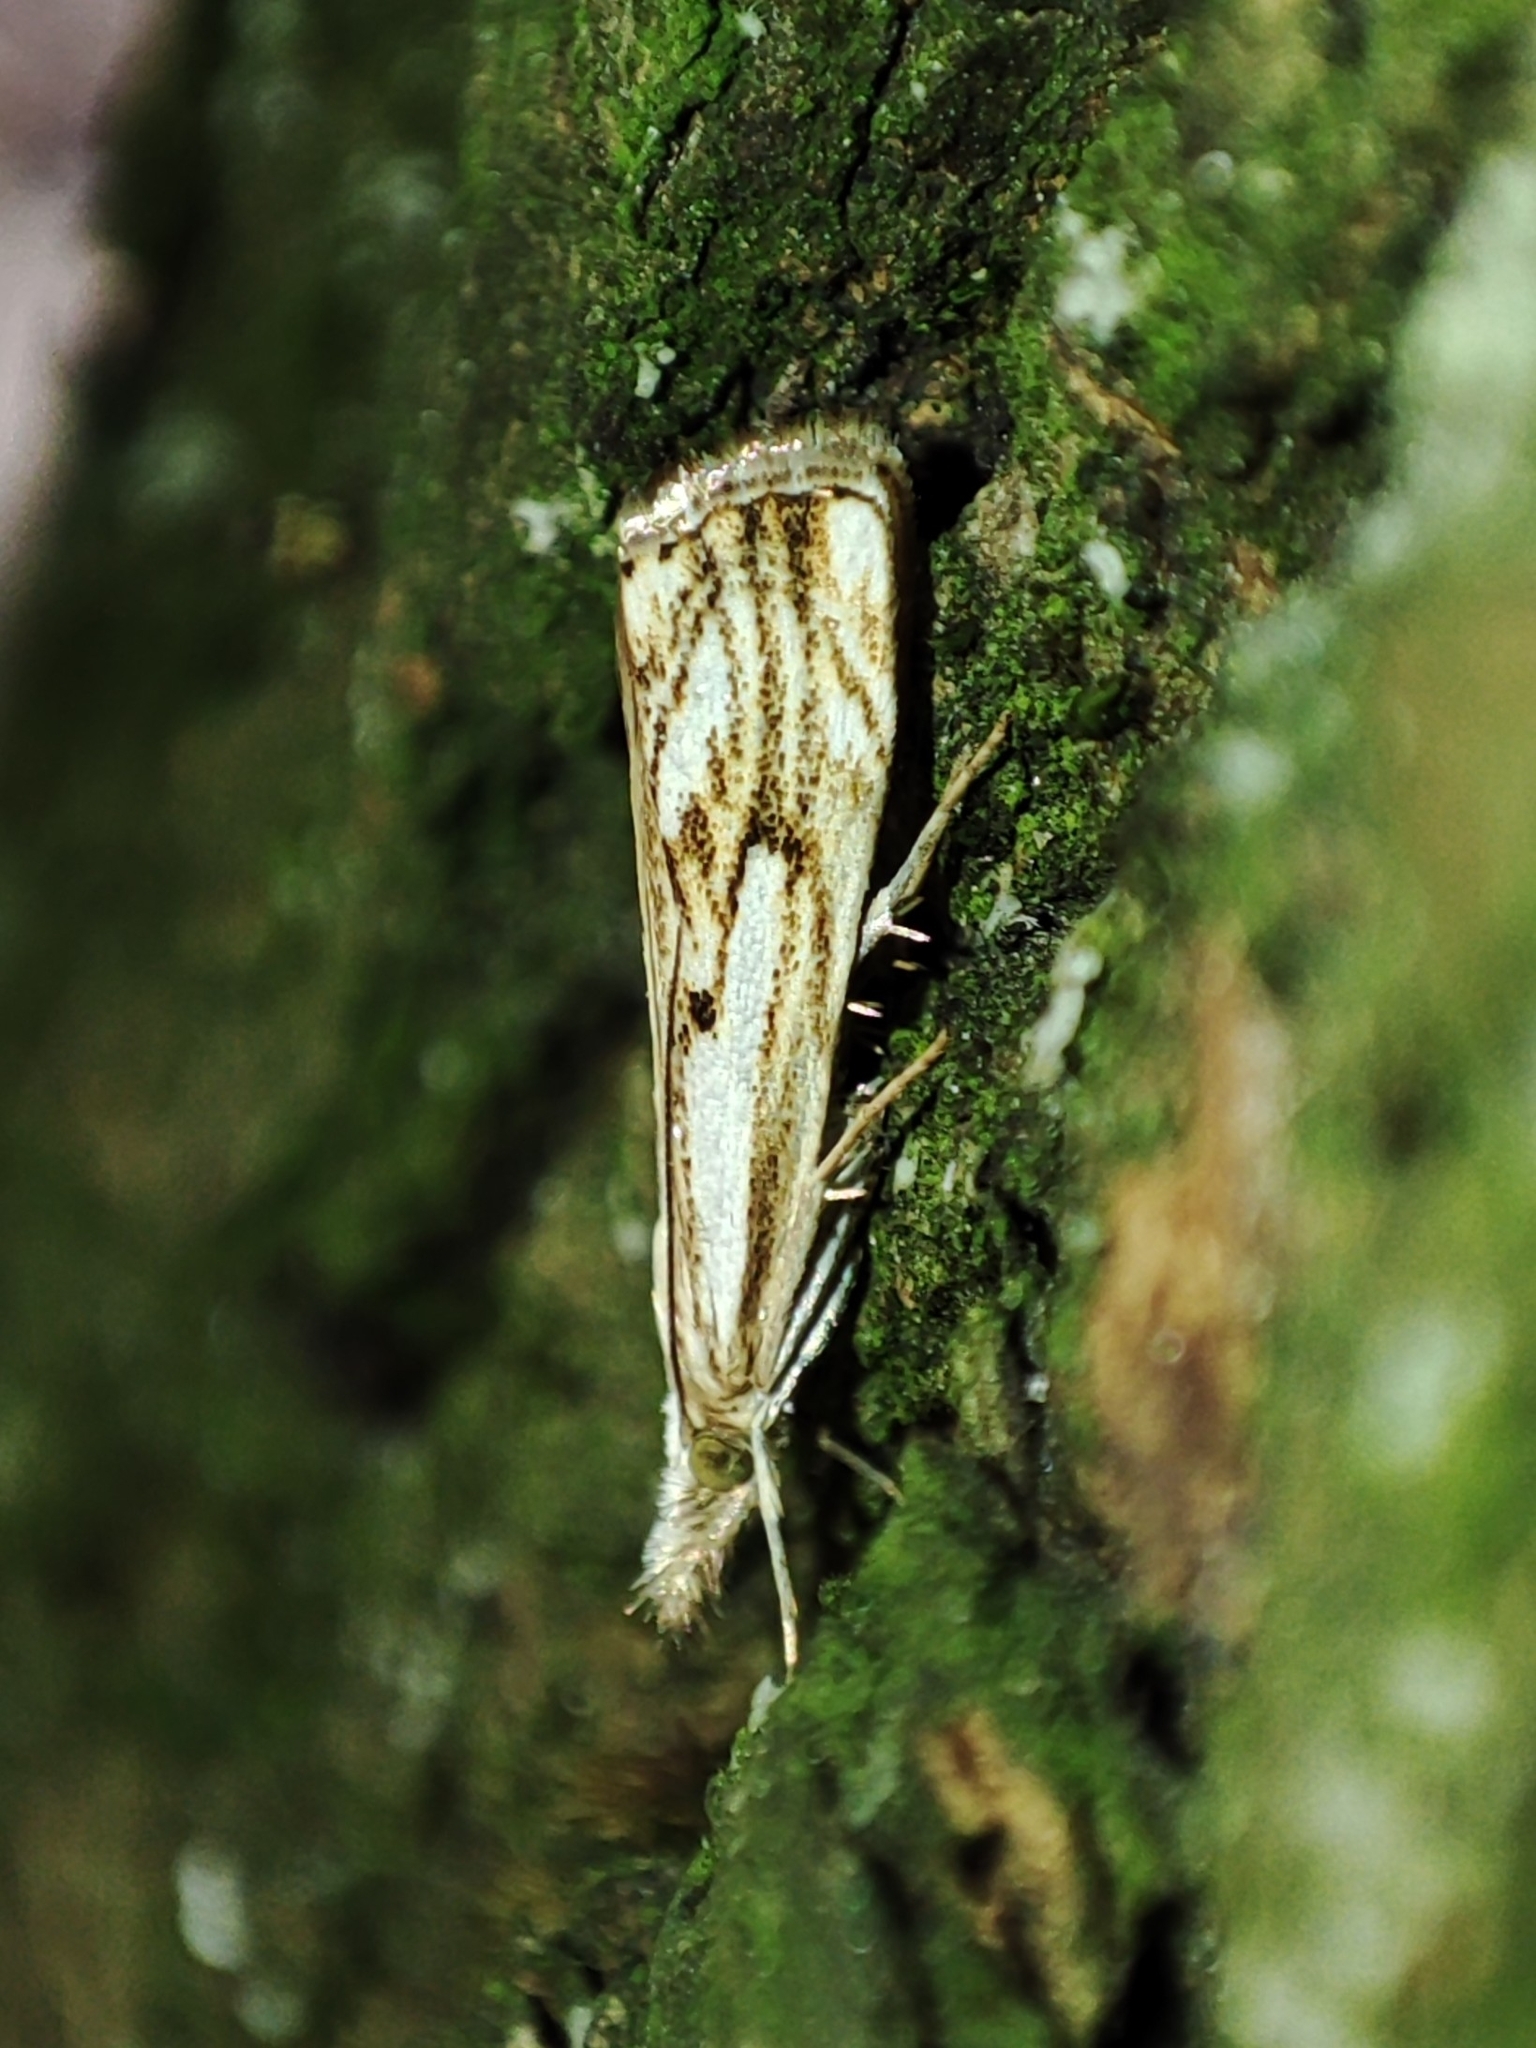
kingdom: Animalia
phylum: Arthropoda
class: Insecta
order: Lepidoptera
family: Crambidae
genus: Catoptria
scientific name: Catoptria falsella
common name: Chequered grass-veneer
